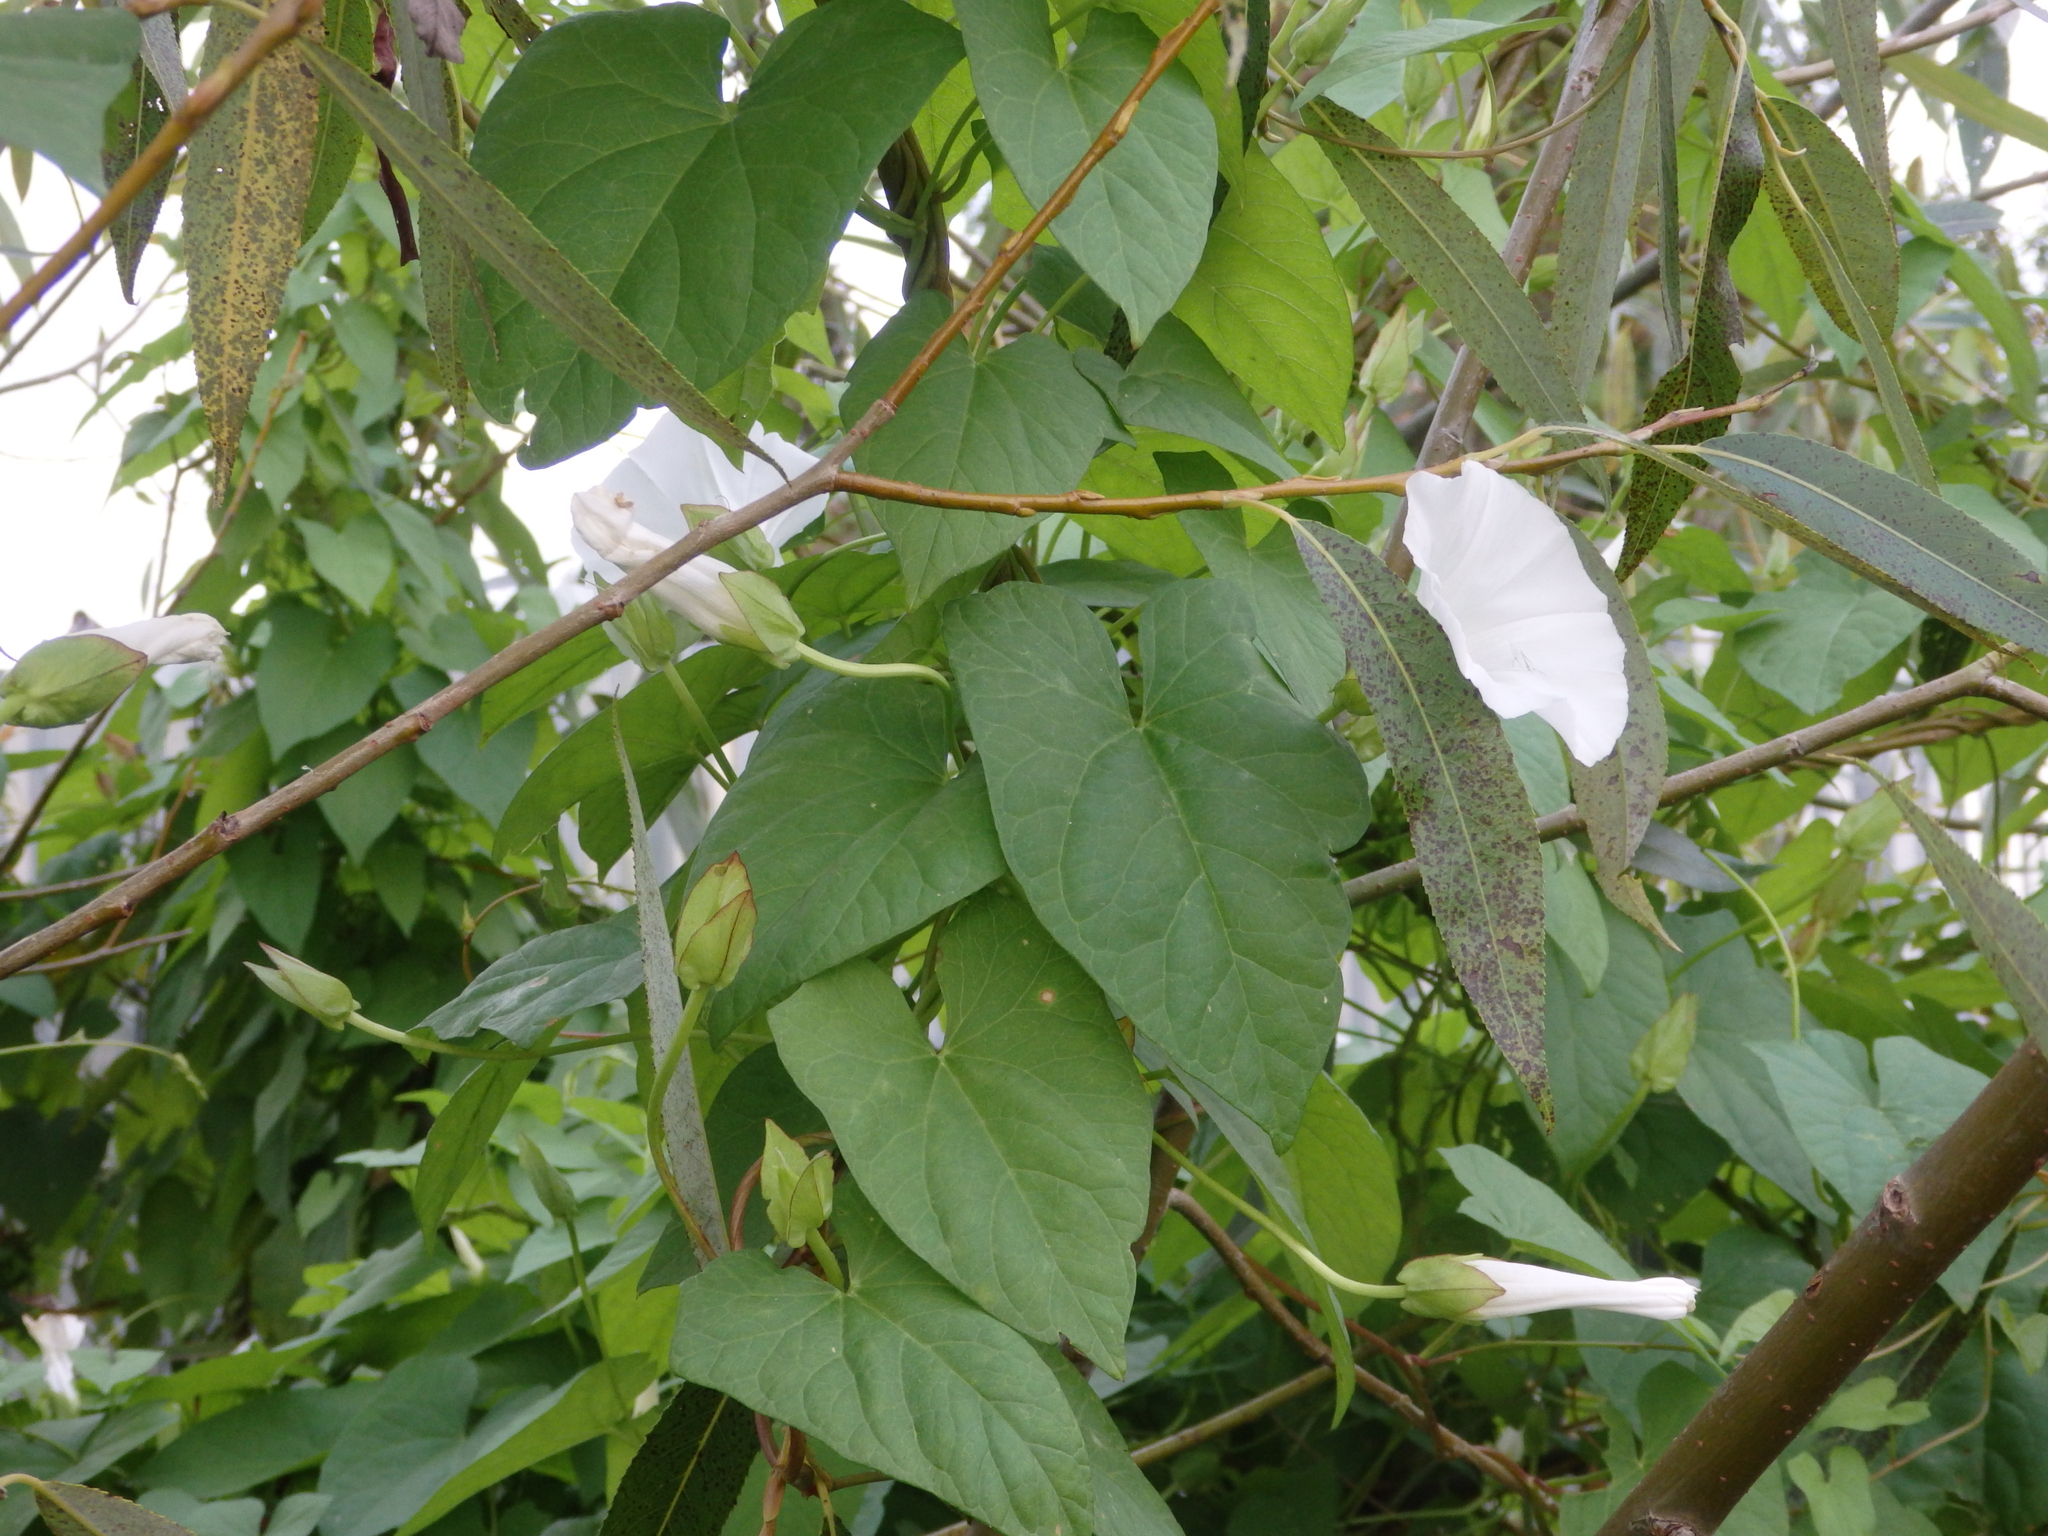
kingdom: Plantae
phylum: Tracheophyta
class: Magnoliopsida
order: Solanales
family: Convolvulaceae
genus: Calystegia
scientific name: Calystegia sepium
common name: Hedge bindweed
